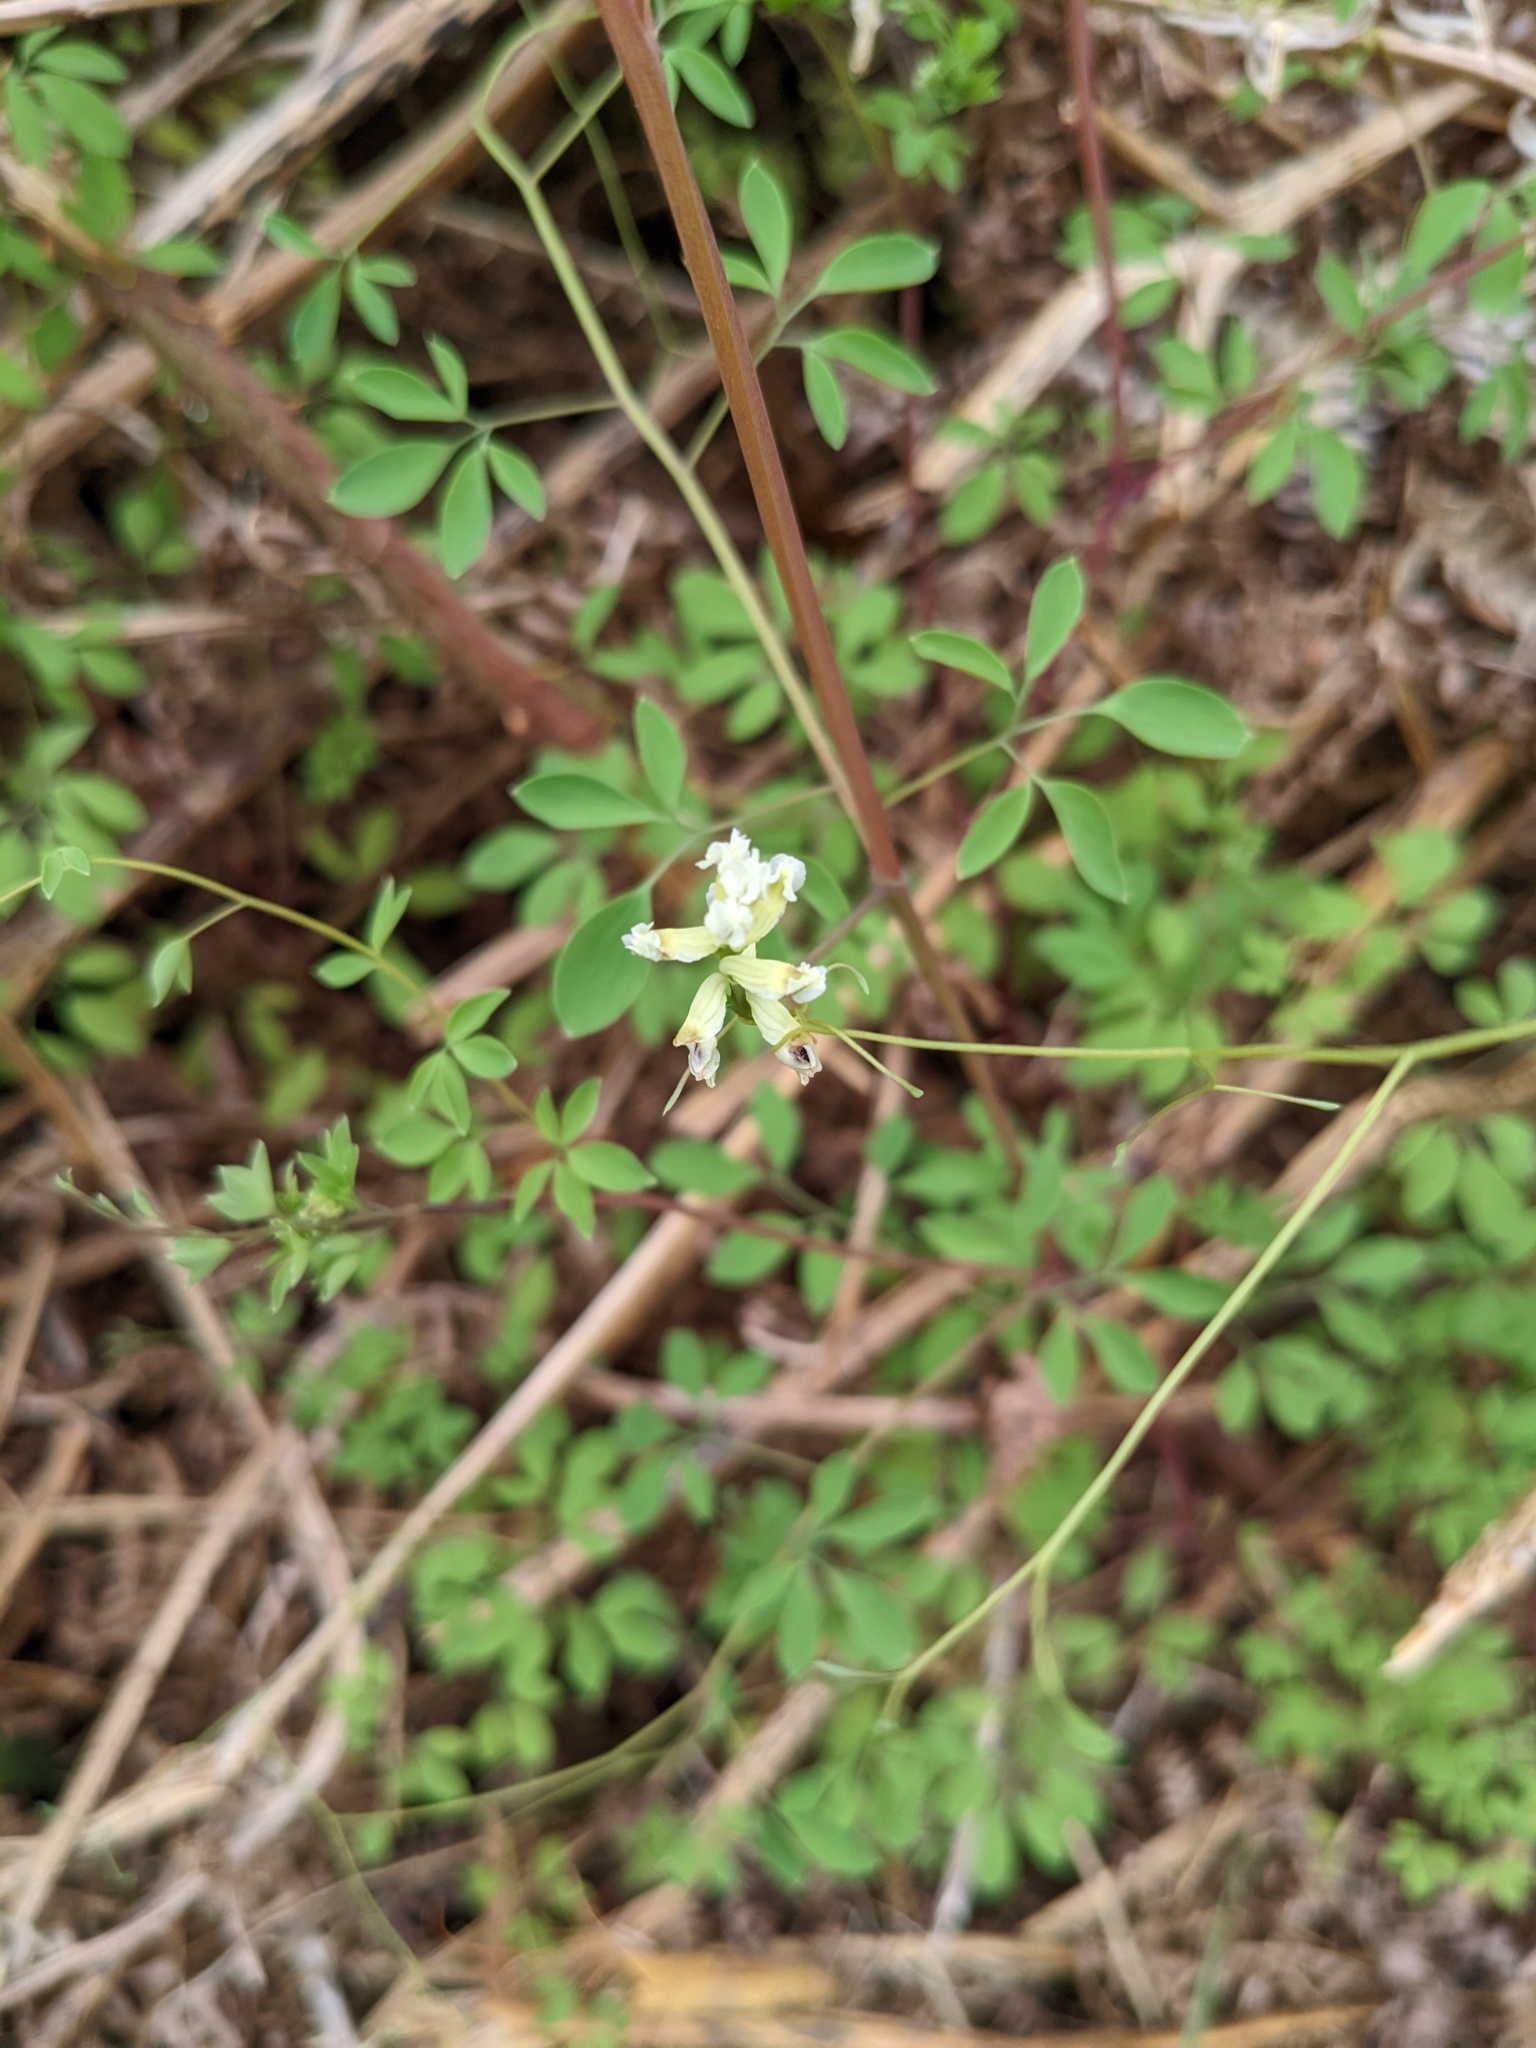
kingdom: Plantae
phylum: Tracheophyta
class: Magnoliopsida
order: Ranunculales
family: Papaveraceae
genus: Ceratocapnos
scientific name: Ceratocapnos claviculata
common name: Climbing corydalis
